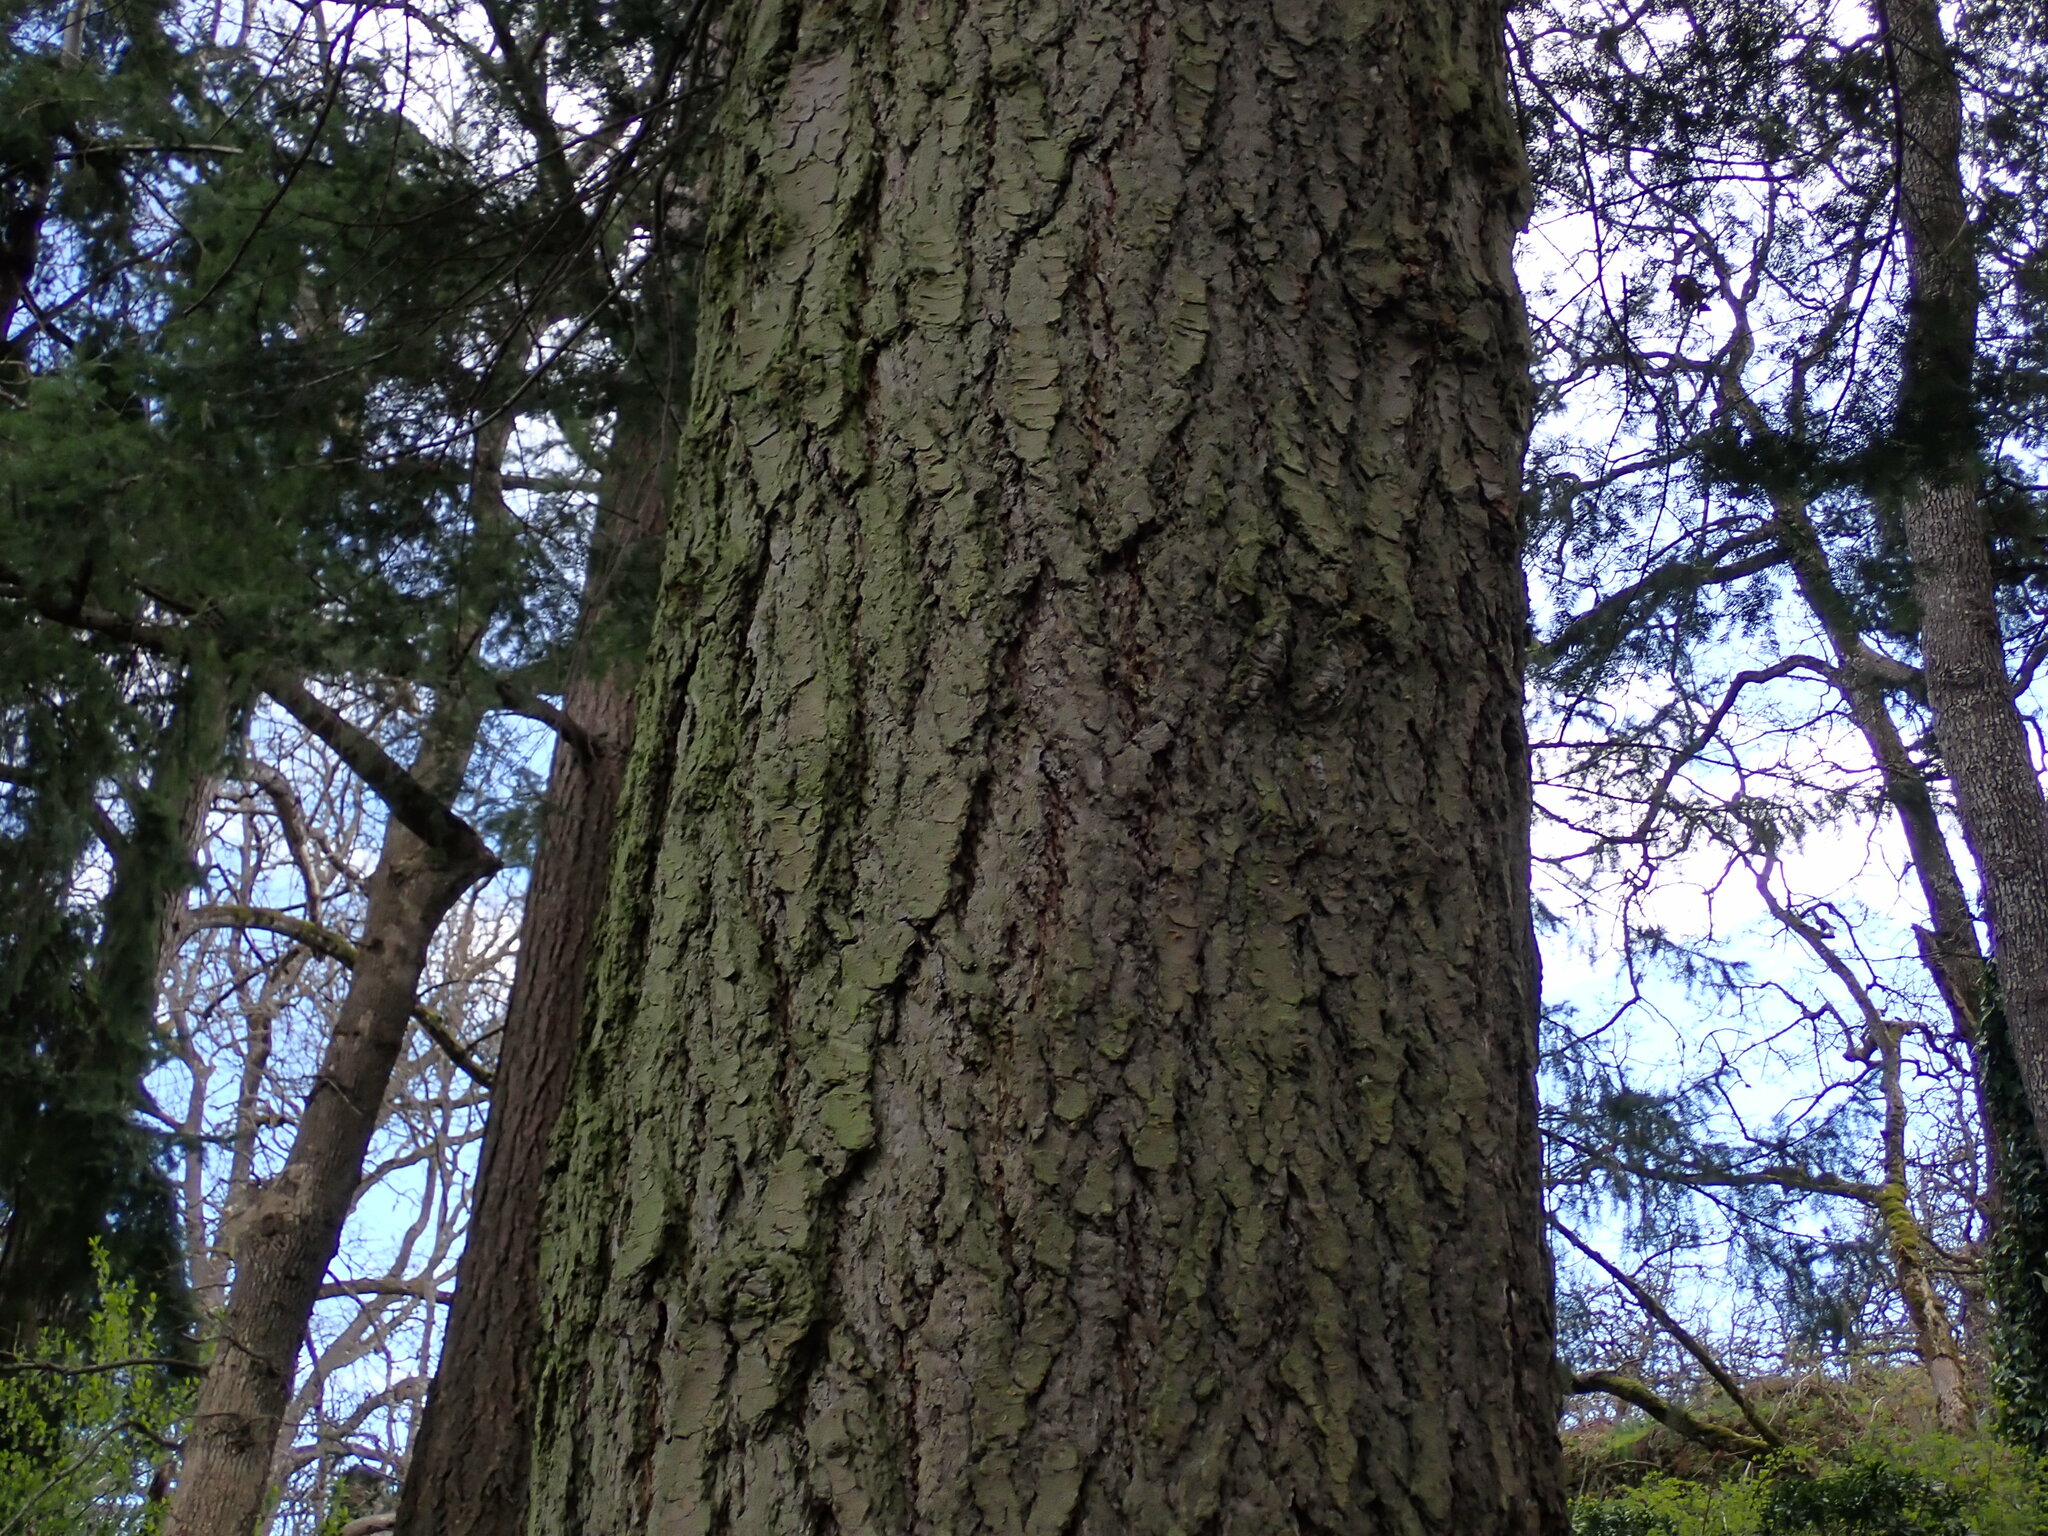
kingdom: Plantae
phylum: Tracheophyta
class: Pinopsida
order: Pinales
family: Pinaceae
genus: Pseudotsuga
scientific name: Pseudotsuga menziesii
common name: Douglas fir
